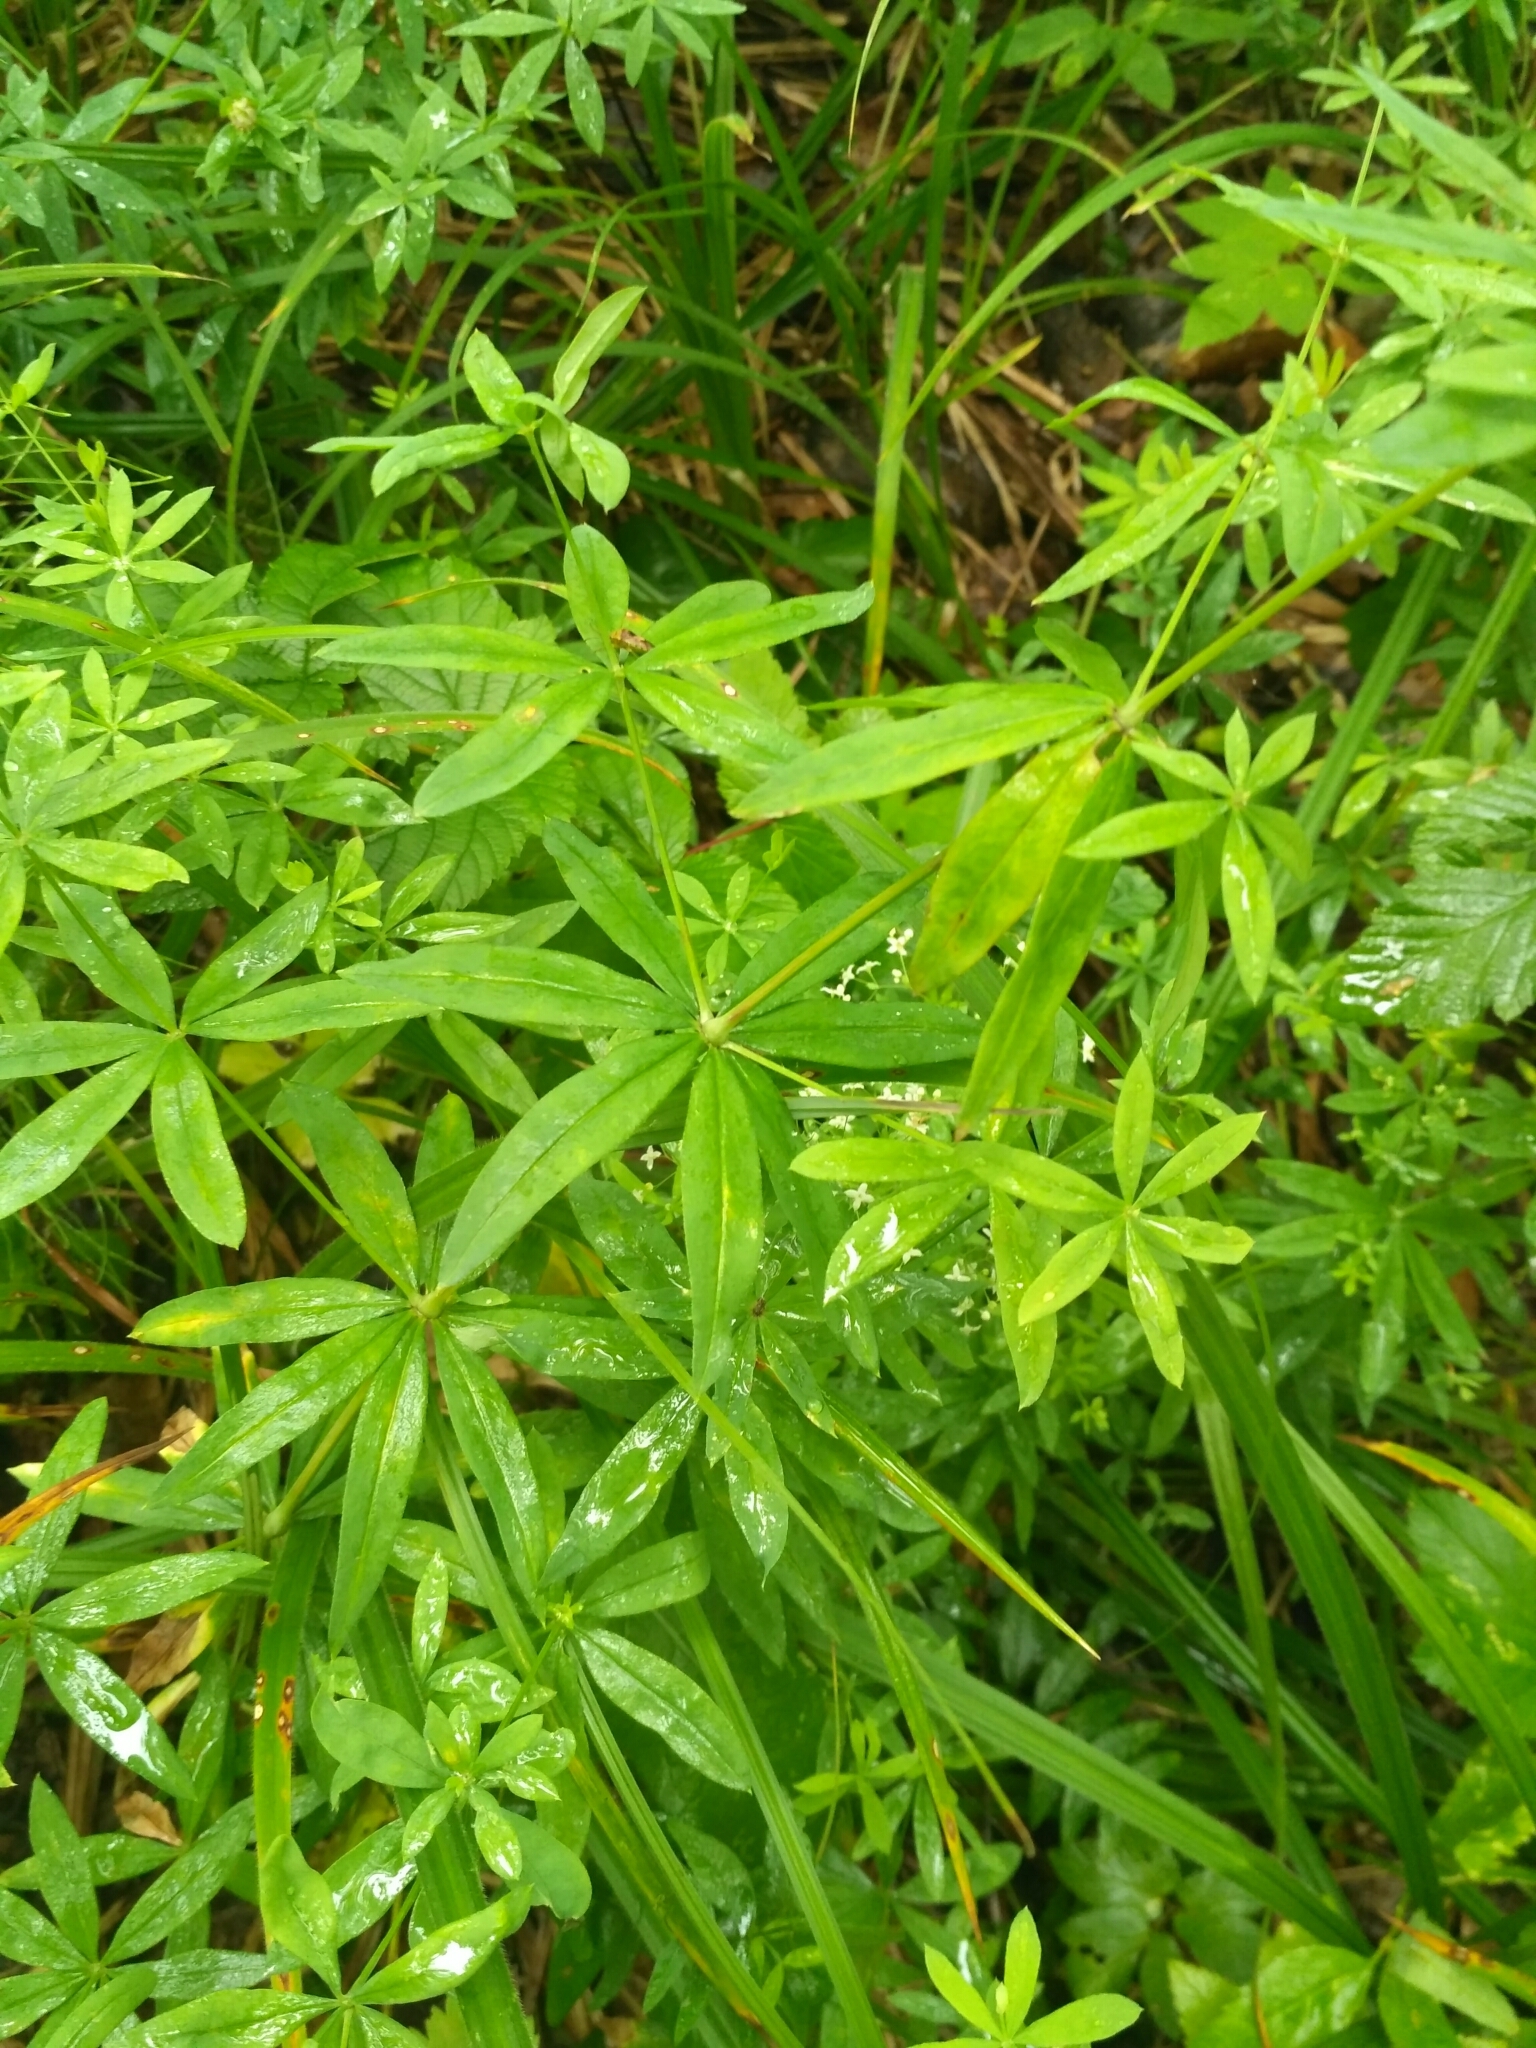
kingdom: Plantae
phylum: Tracheophyta
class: Magnoliopsida
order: Gentianales
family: Rubiaceae
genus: Galium
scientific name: Galium intermedium
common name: Bedstraw
